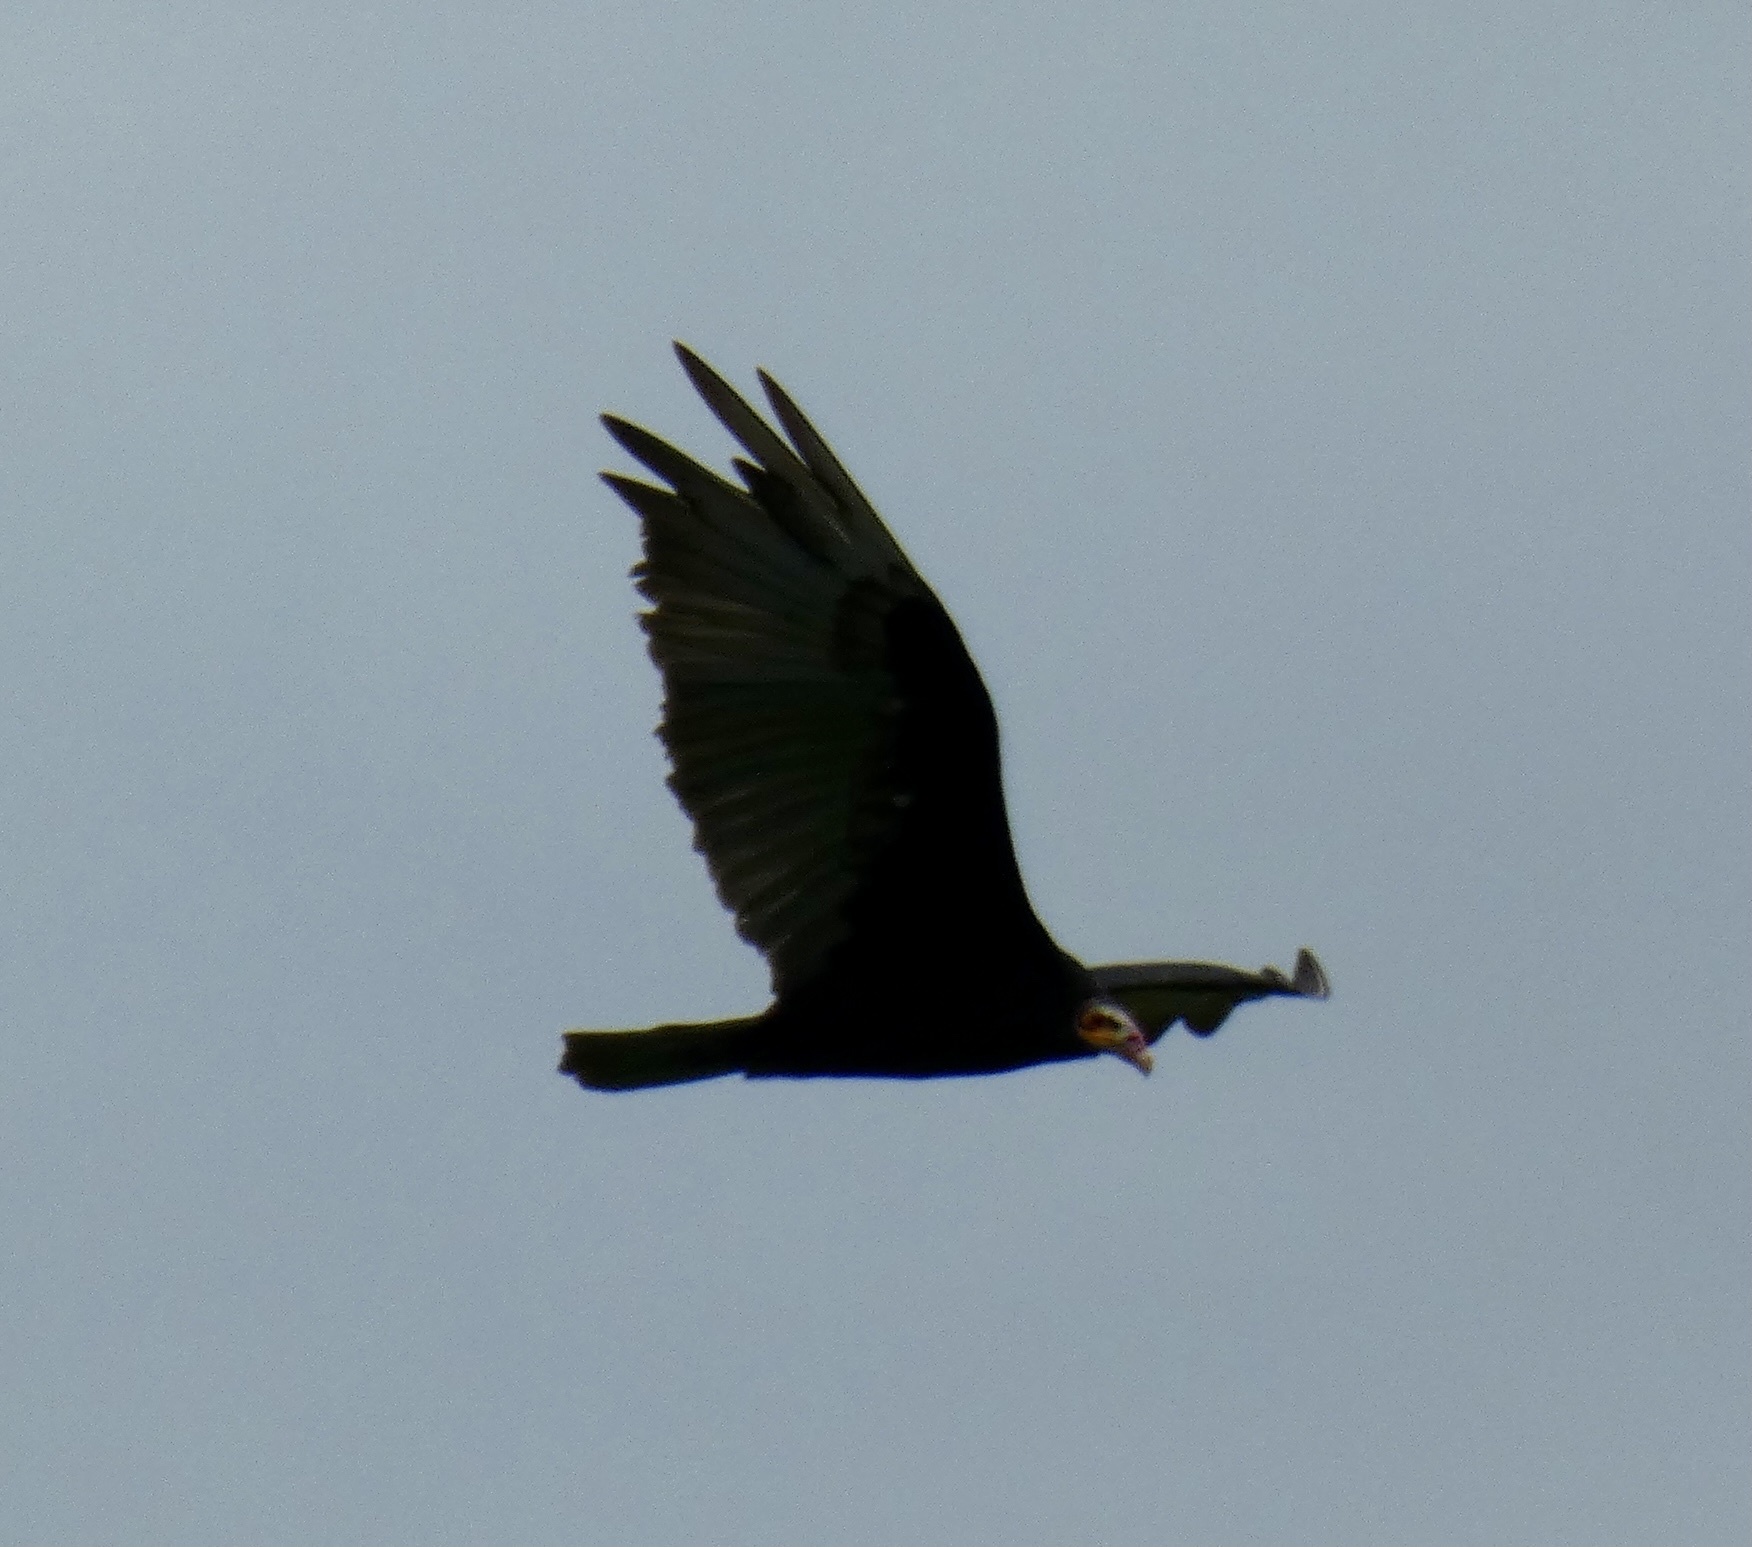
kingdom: Animalia
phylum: Chordata
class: Aves
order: Accipitriformes
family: Cathartidae
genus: Cathartes
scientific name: Cathartes burrovianus
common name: Lesser yellow-headed vulture
